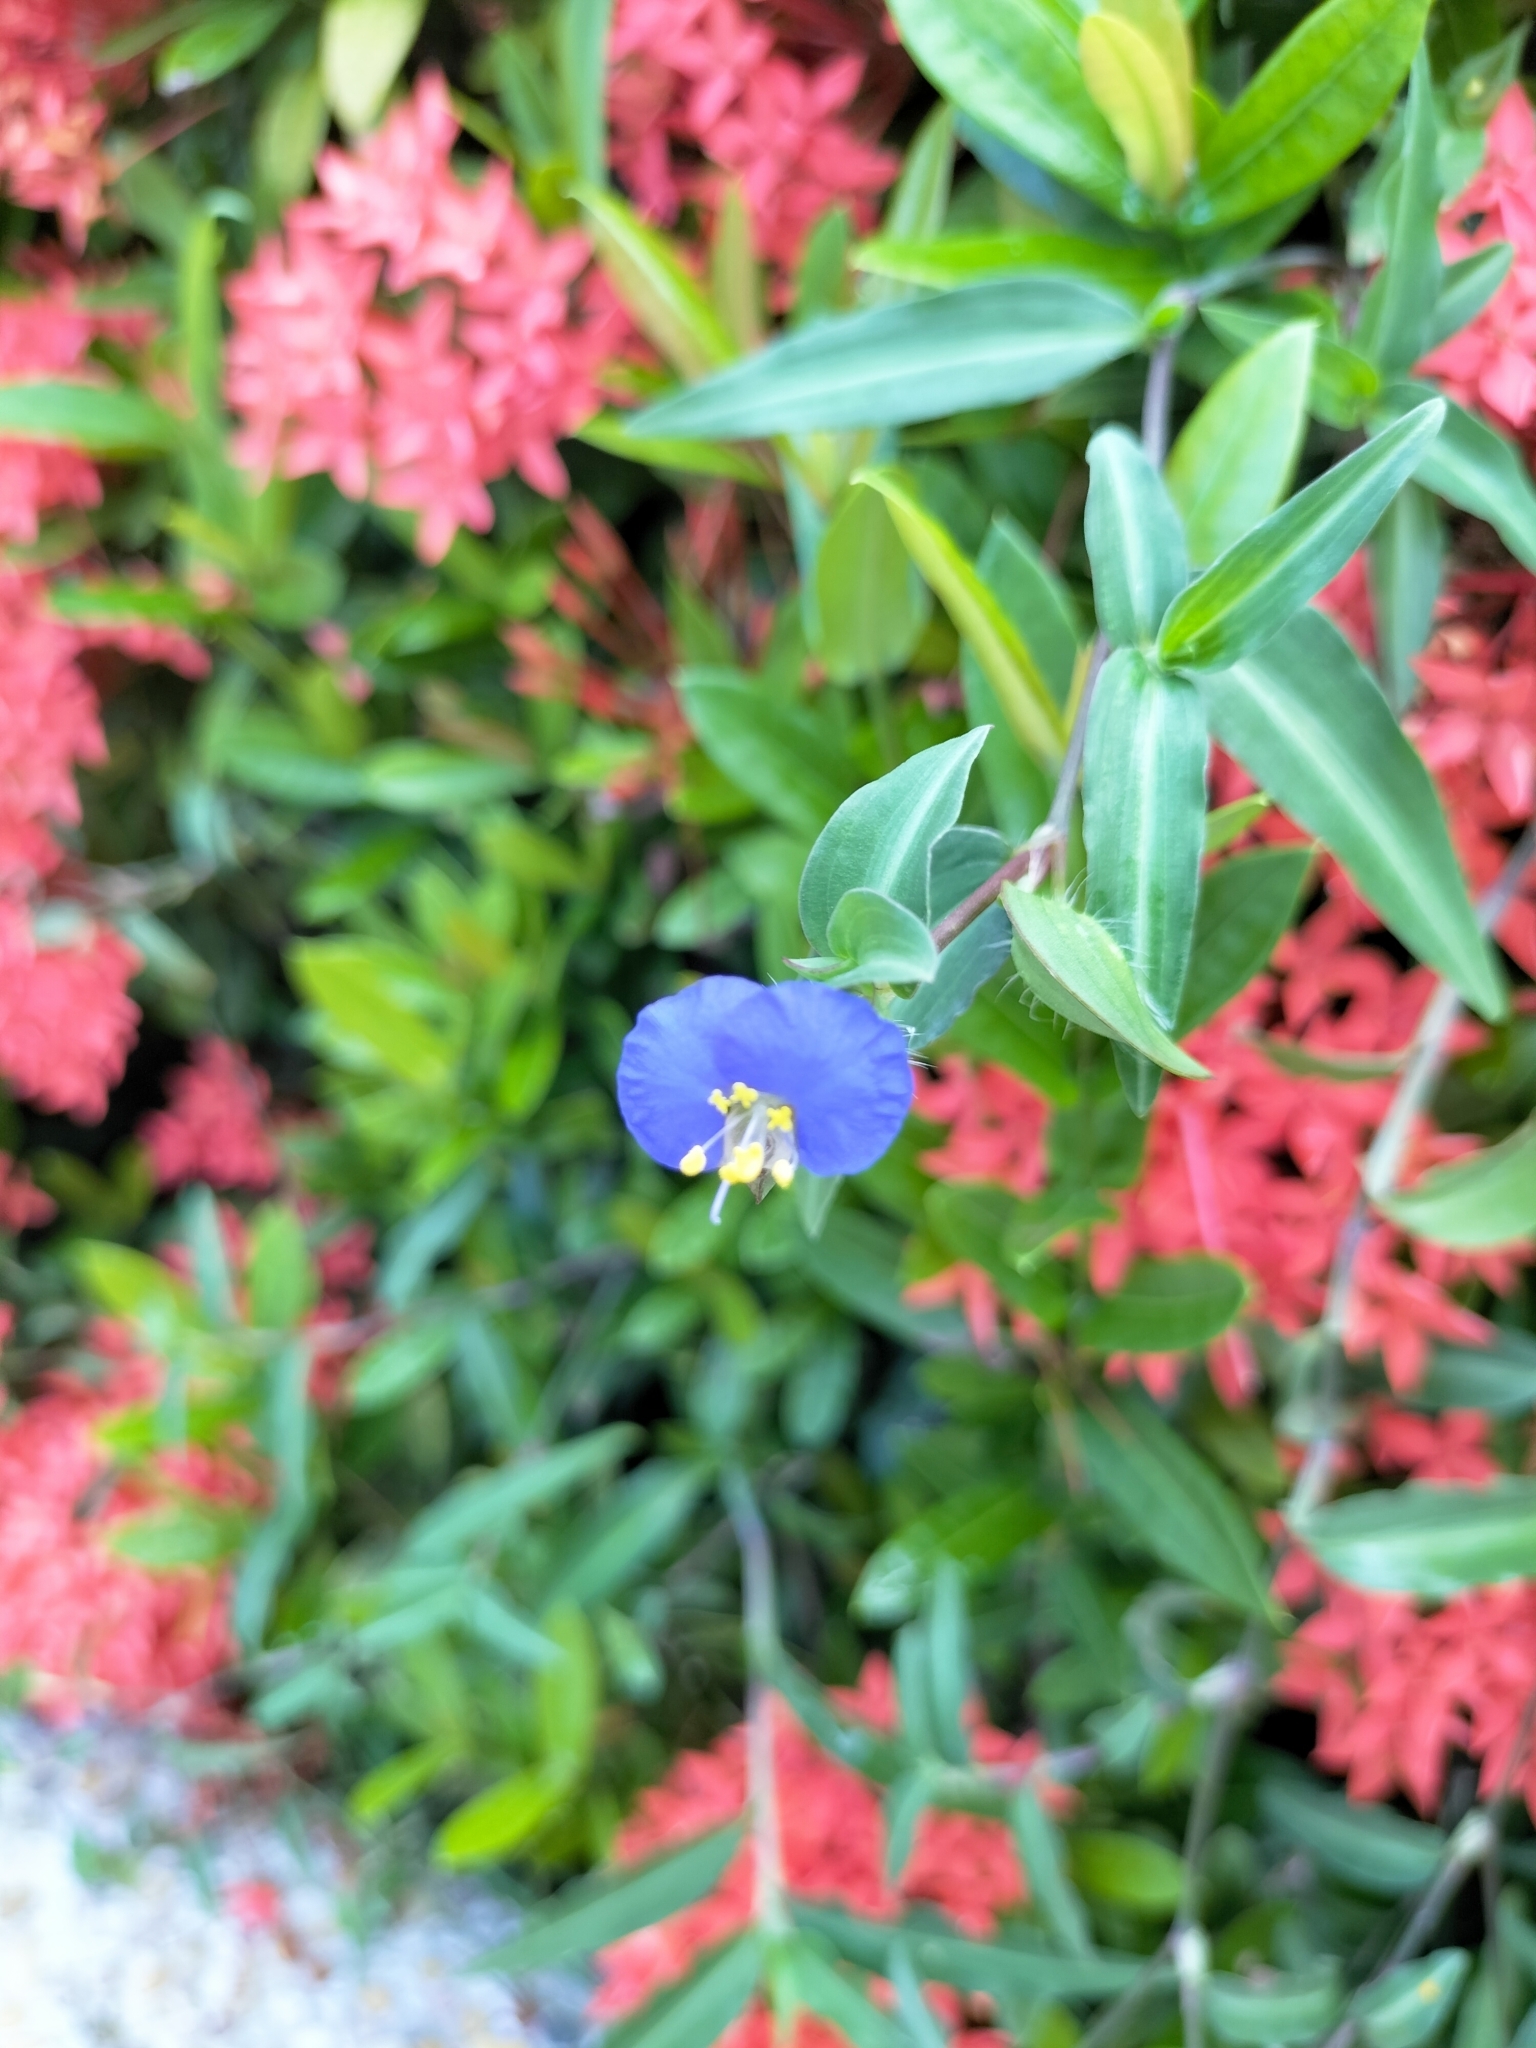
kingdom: Plantae
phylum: Tracheophyta
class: Liliopsida
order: Commelinales
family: Commelinaceae
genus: Commelina
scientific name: Commelina auriculata
